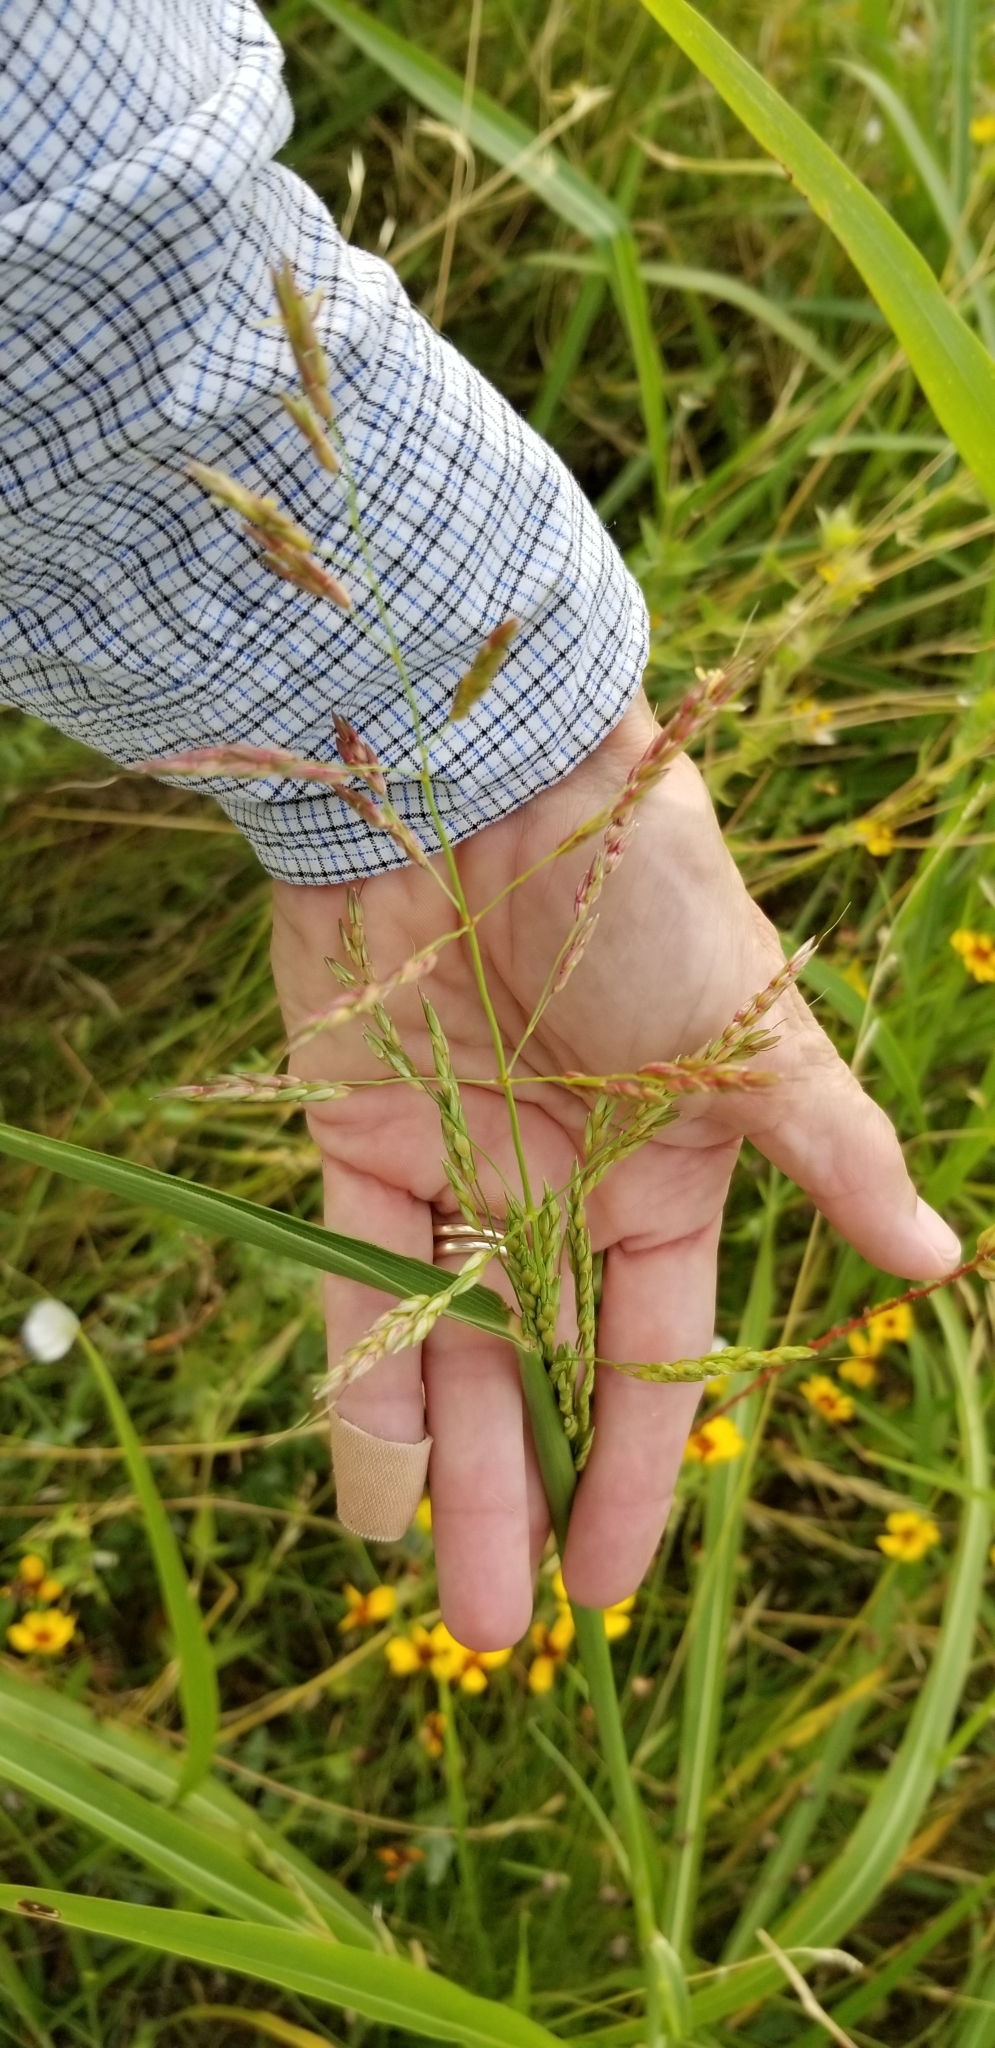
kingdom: Plantae
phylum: Tracheophyta
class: Liliopsida
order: Poales
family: Poaceae
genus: Sorghum
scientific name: Sorghum halepense
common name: Johnson-grass
